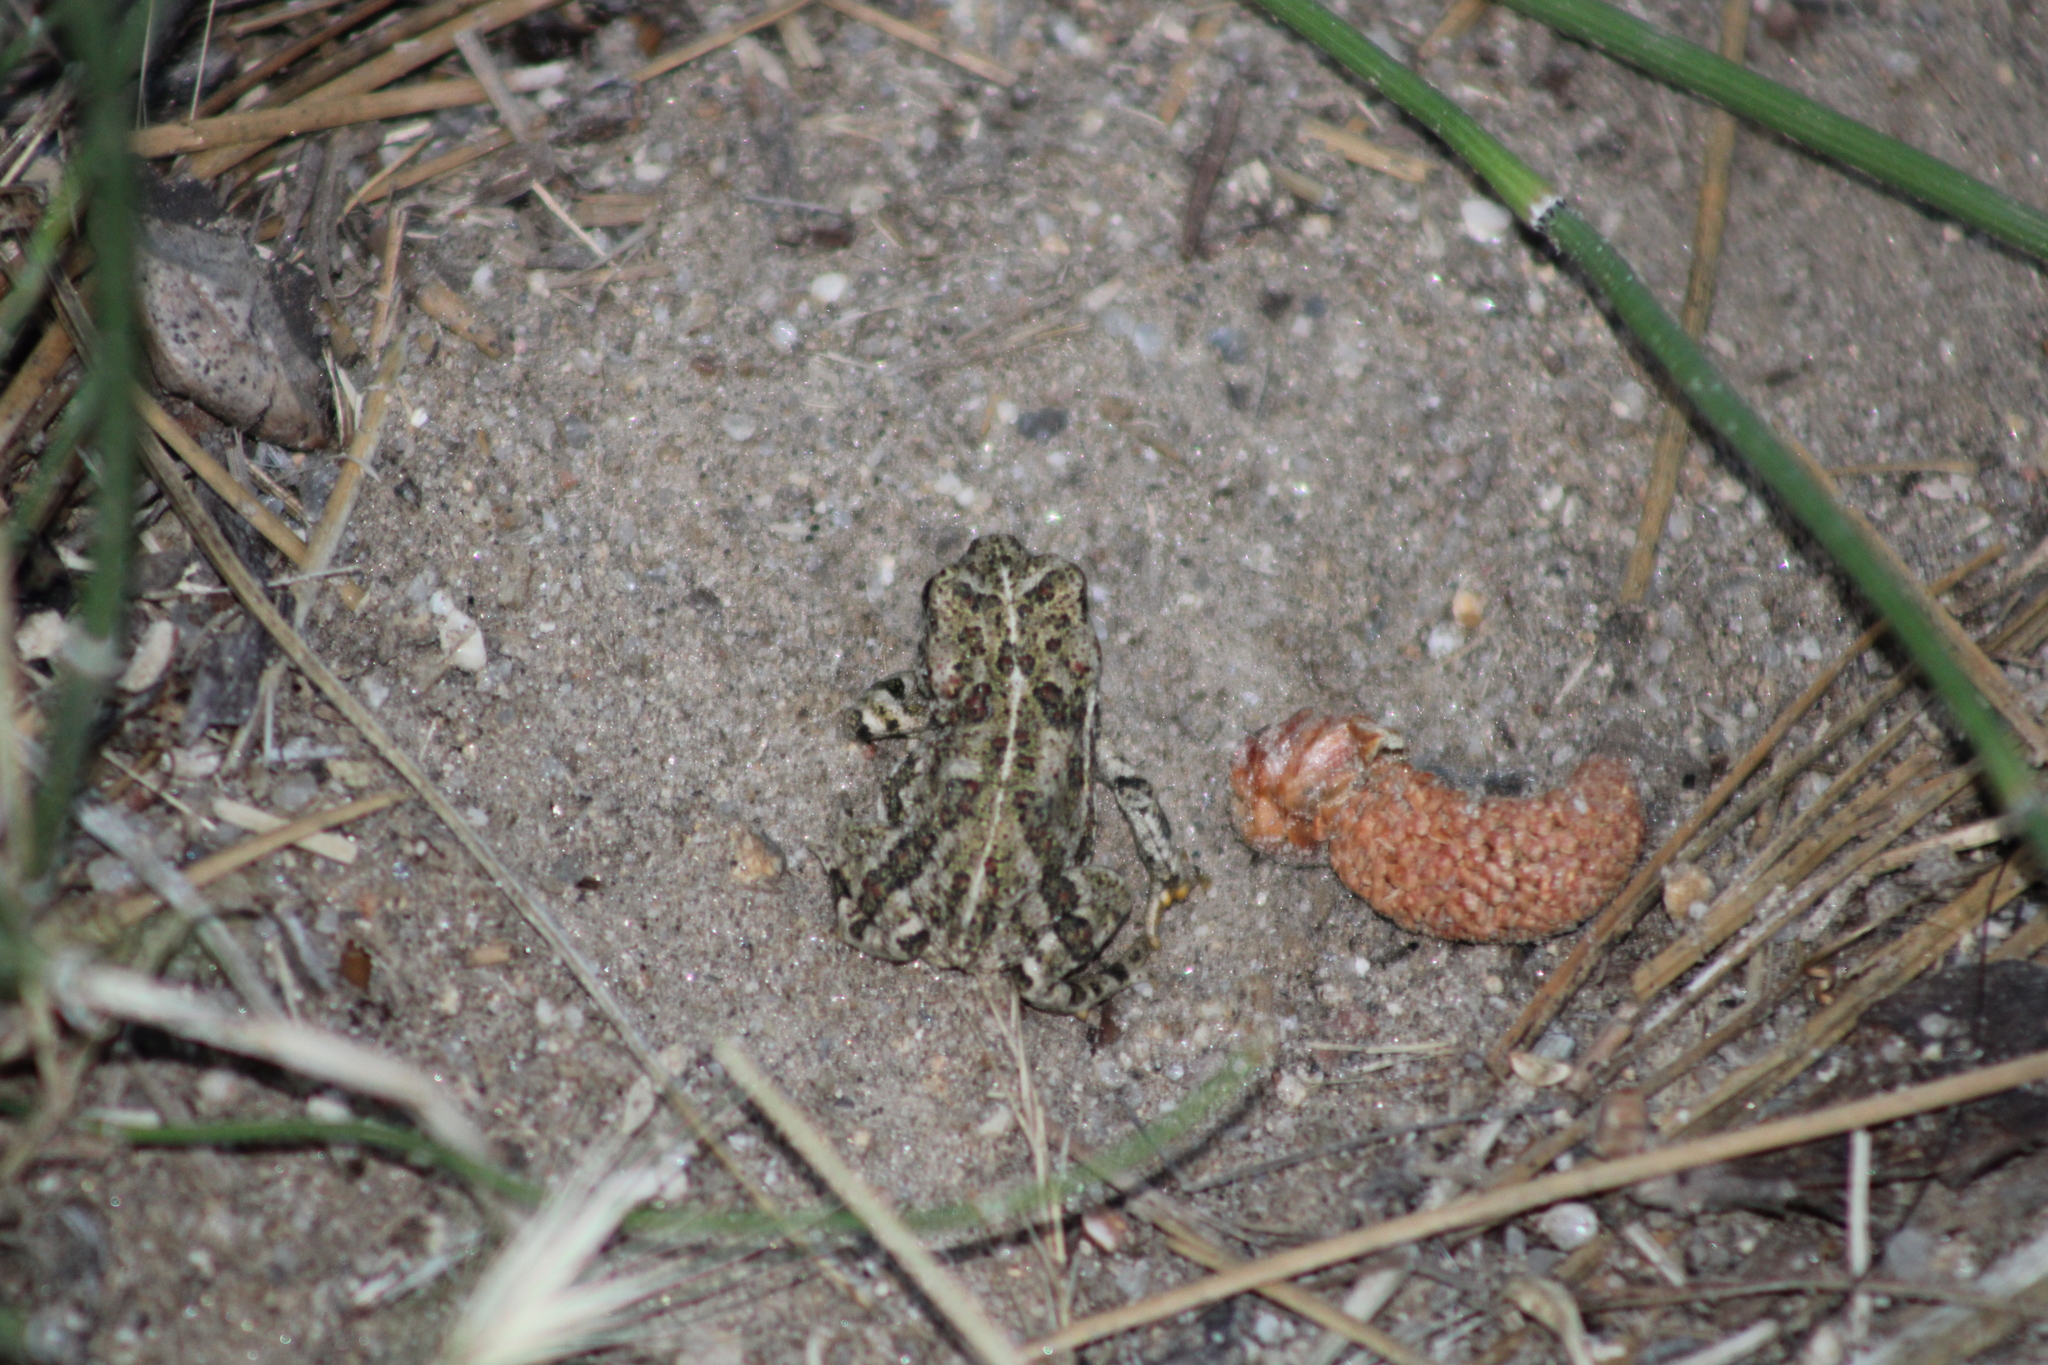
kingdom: Animalia
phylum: Chordata
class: Amphibia
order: Anura
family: Bufonidae
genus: Anaxyrus
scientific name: Anaxyrus boreas
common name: Western toad
